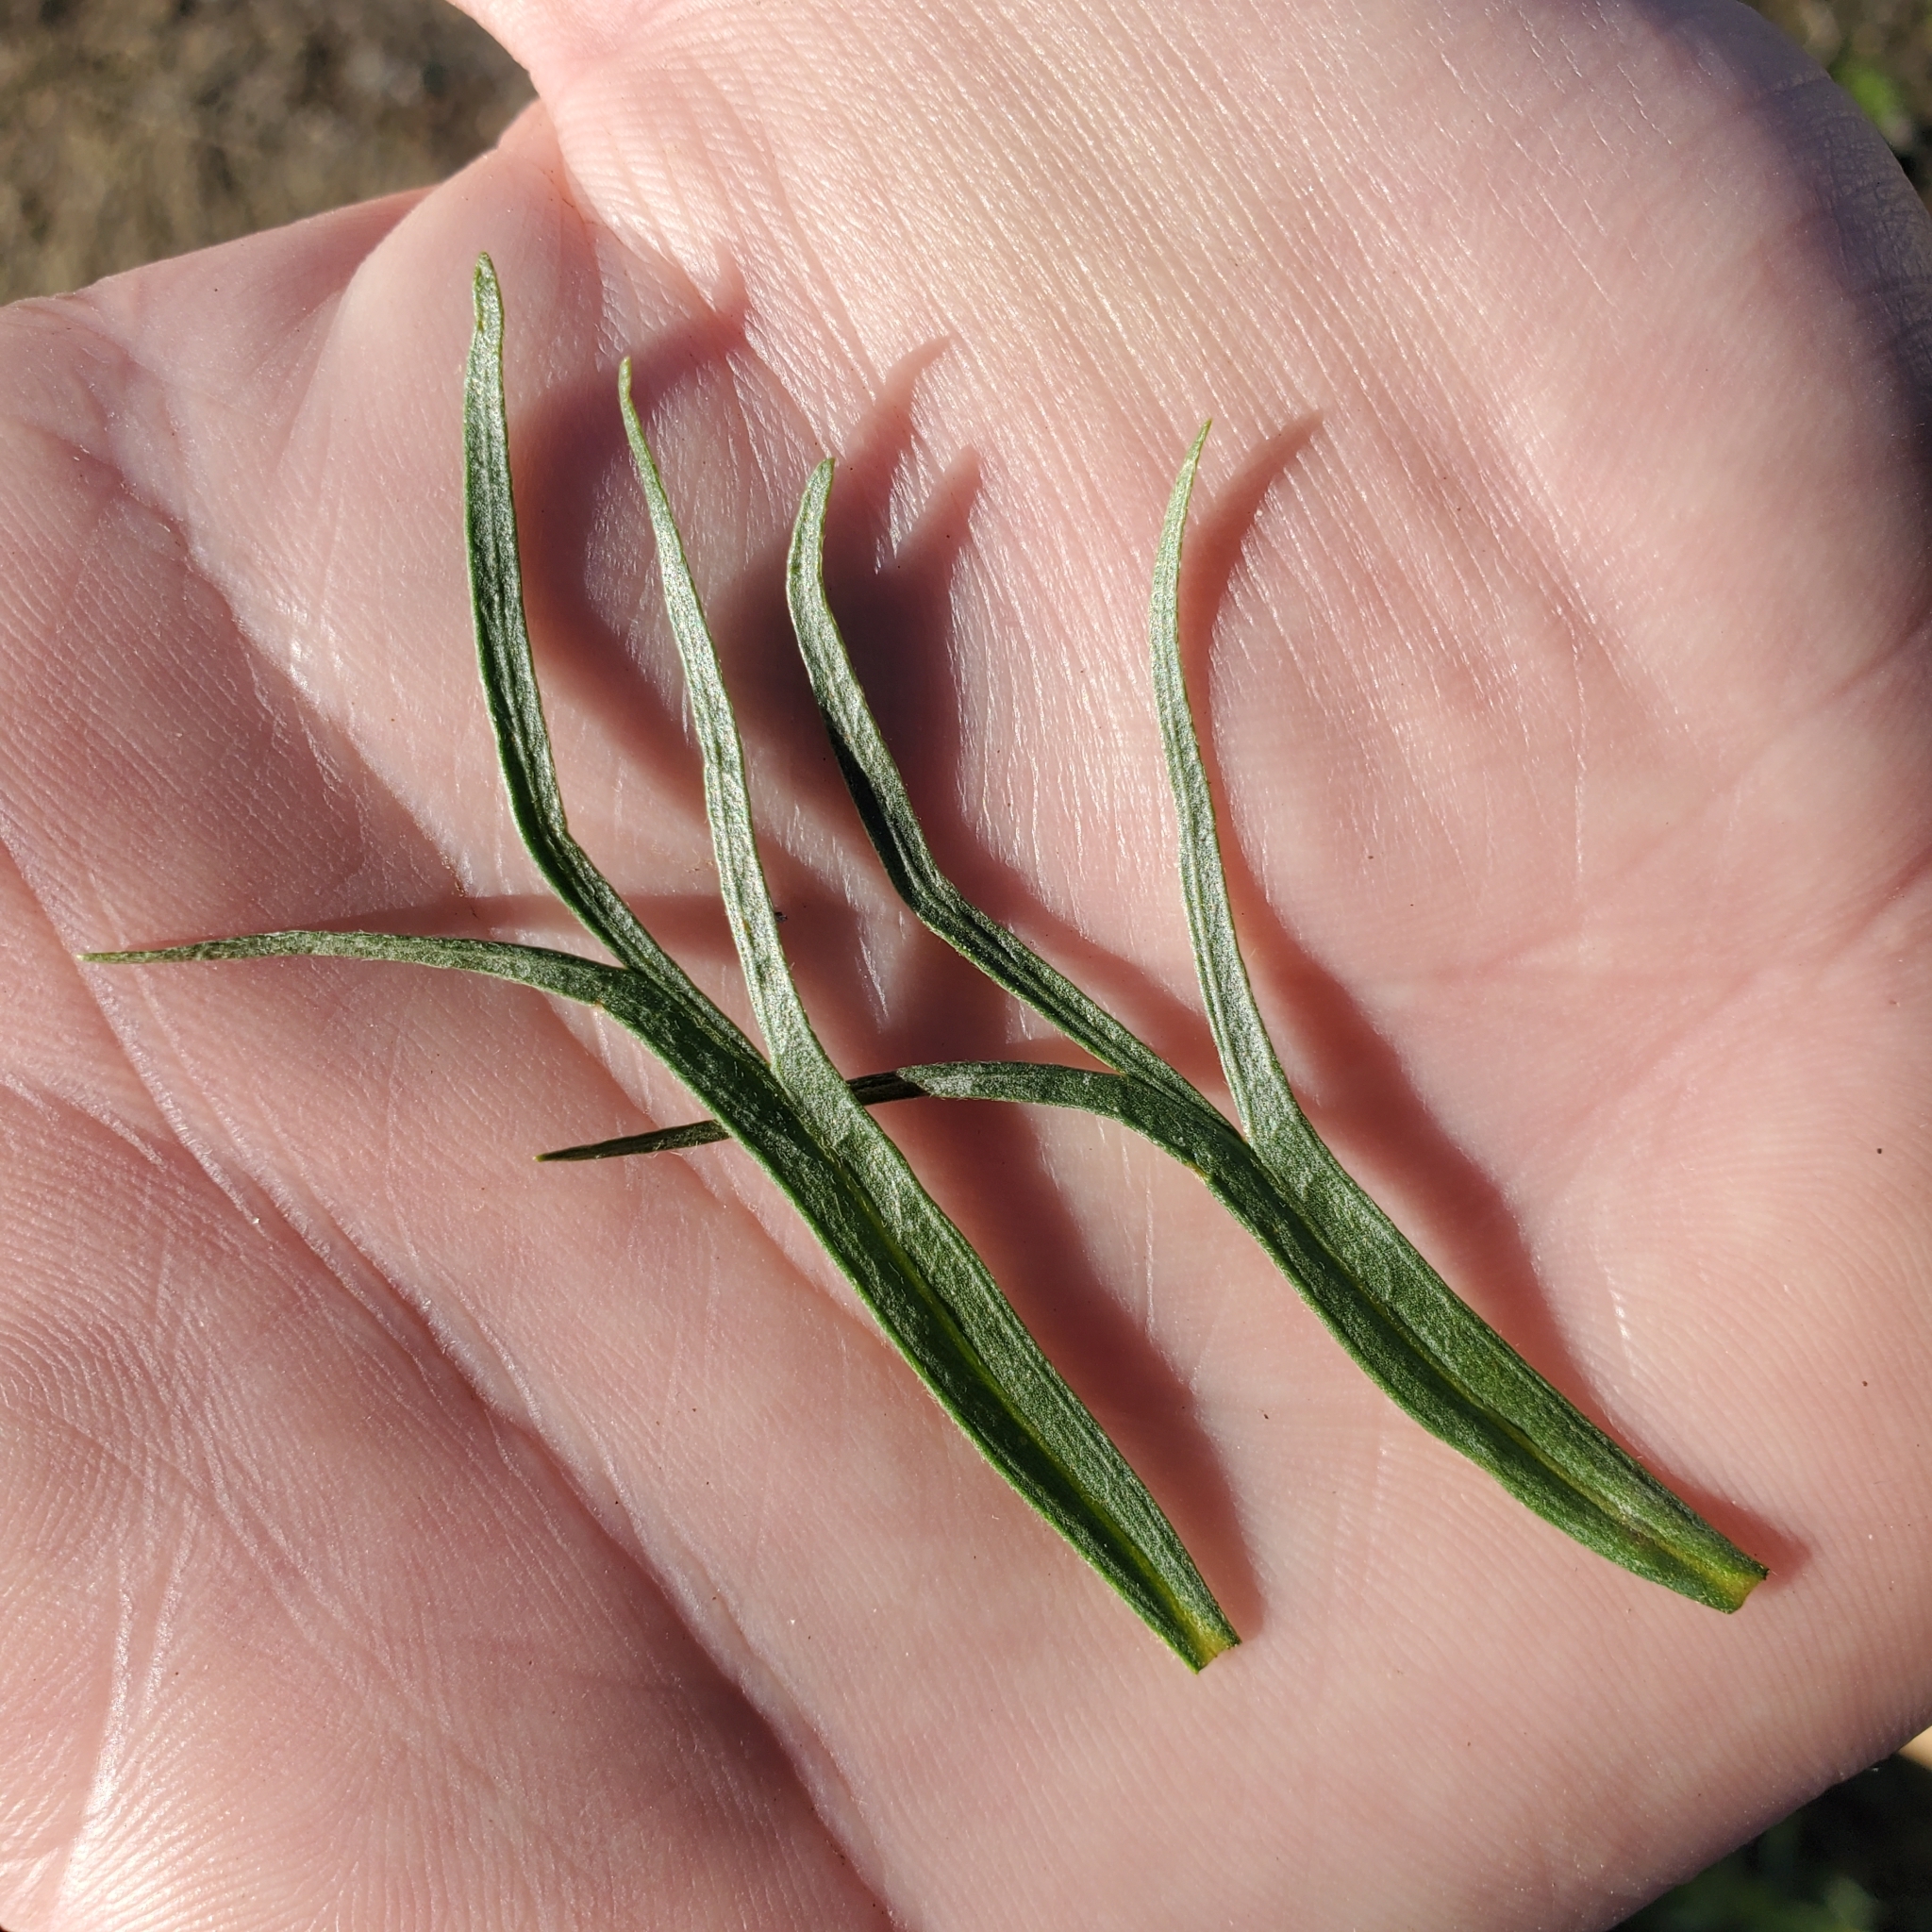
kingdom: Plantae
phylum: Tracheophyta
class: Magnoliopsida
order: Asterales
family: Asteraceae
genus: Artemisia
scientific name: Artemisia dracunculus
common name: Tarragon
